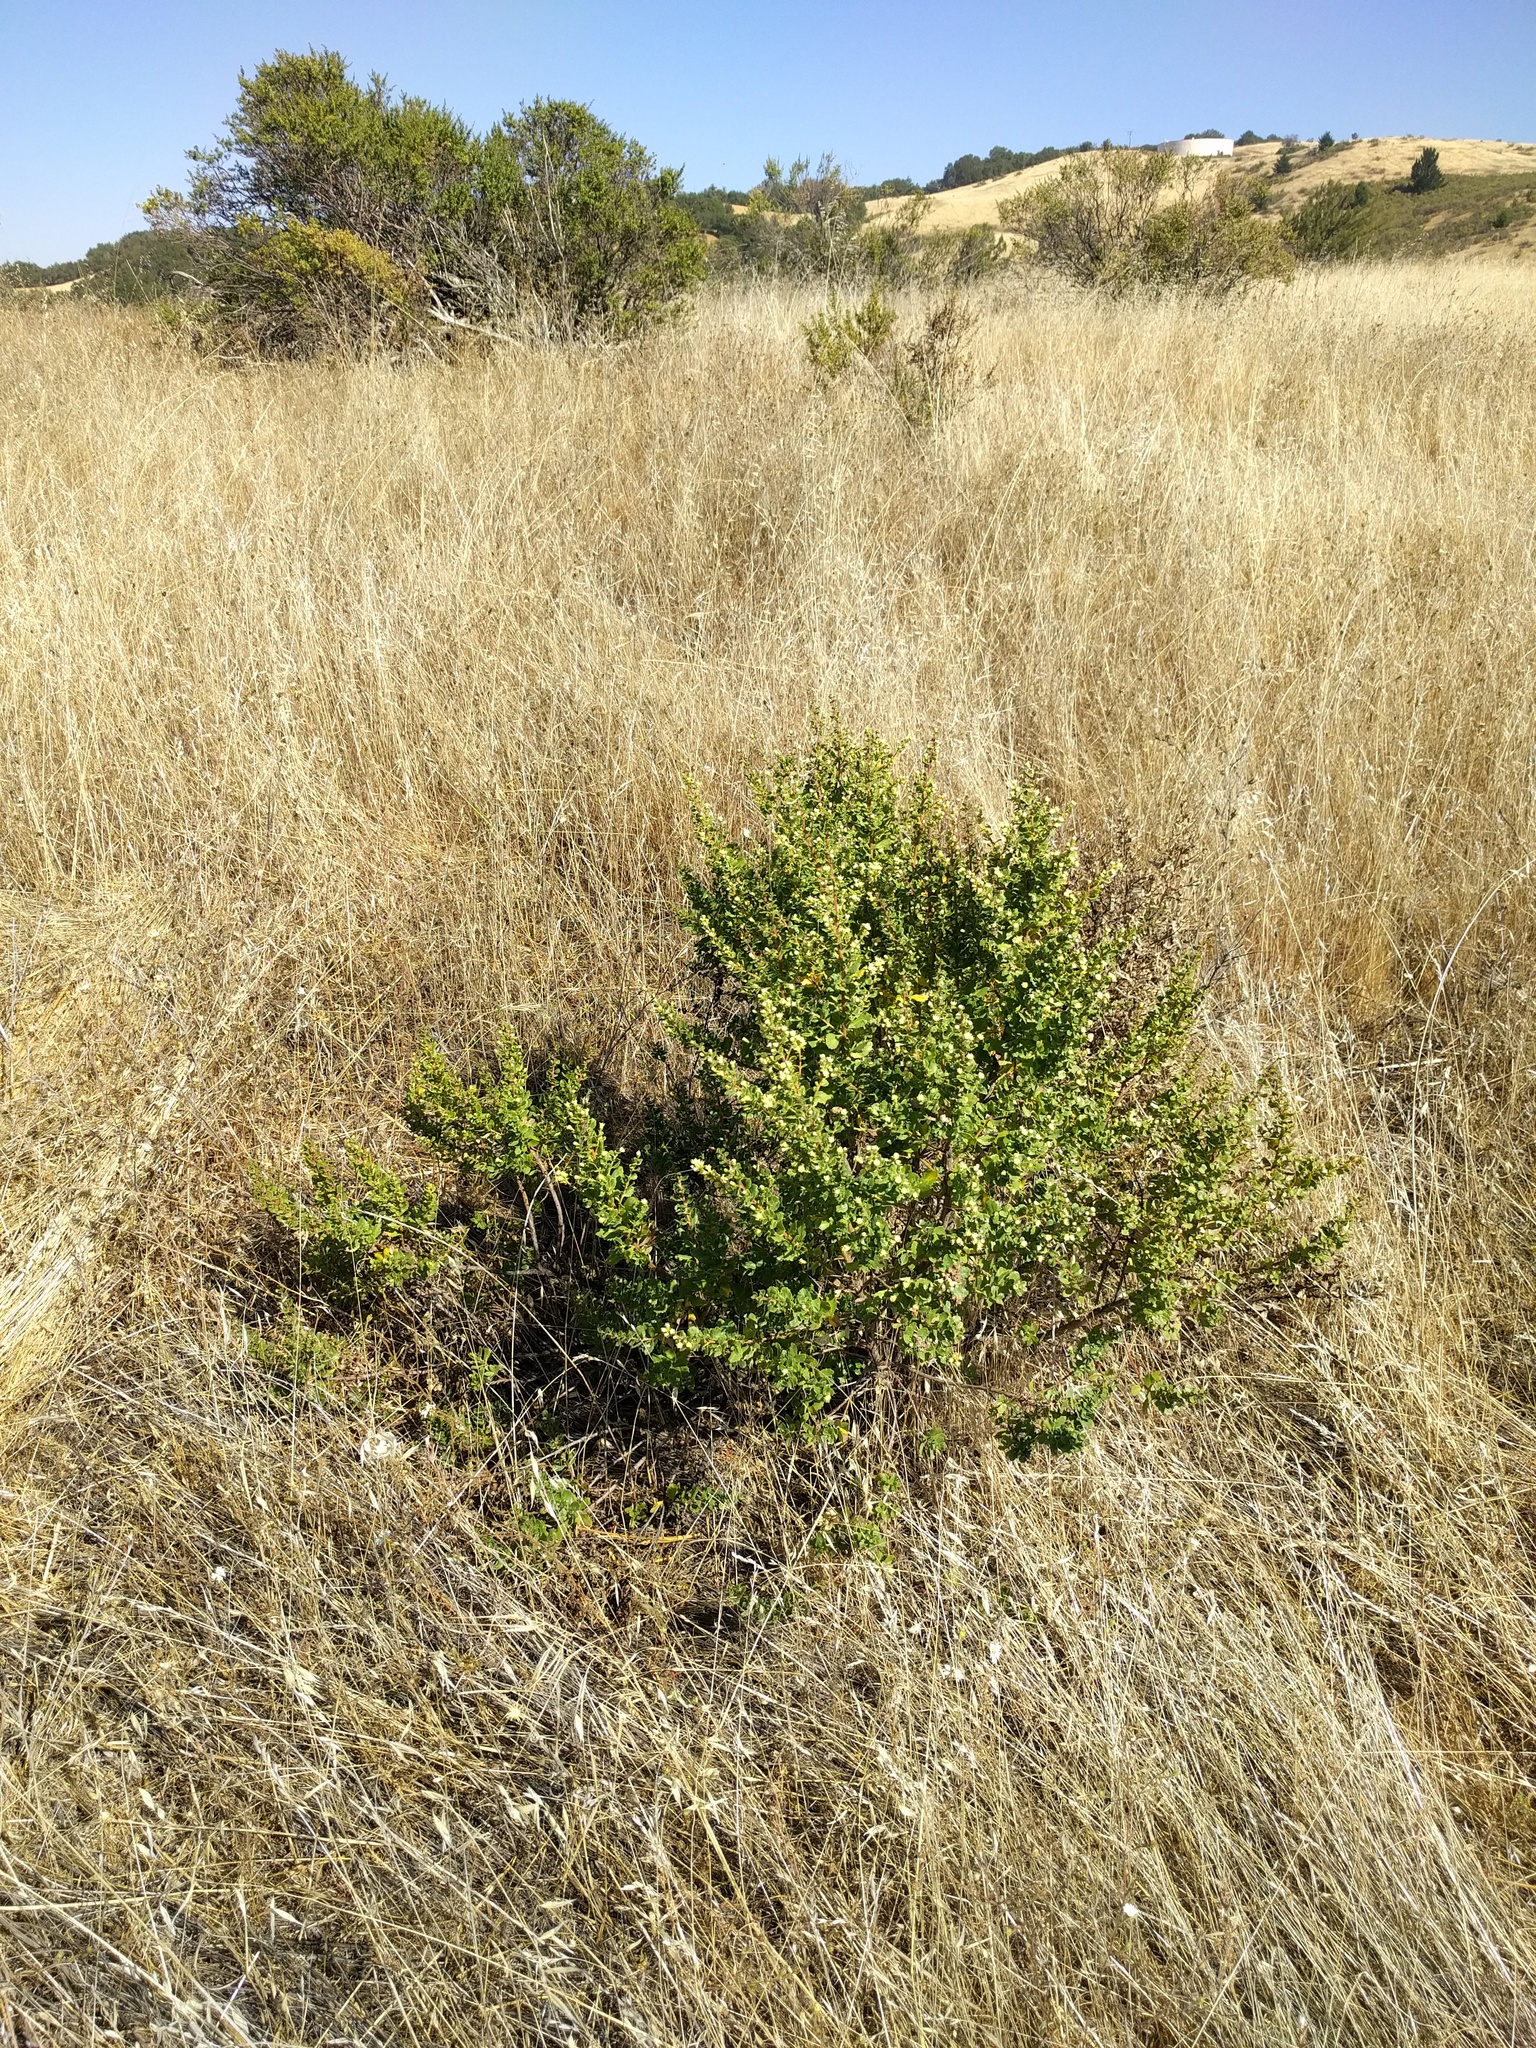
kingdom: Plantae
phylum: Tracheophyta
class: Magnoliopsida
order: Asterales
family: Asteraceae
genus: Baccharis
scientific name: Baccharis pilularis
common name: Coyotebrush
